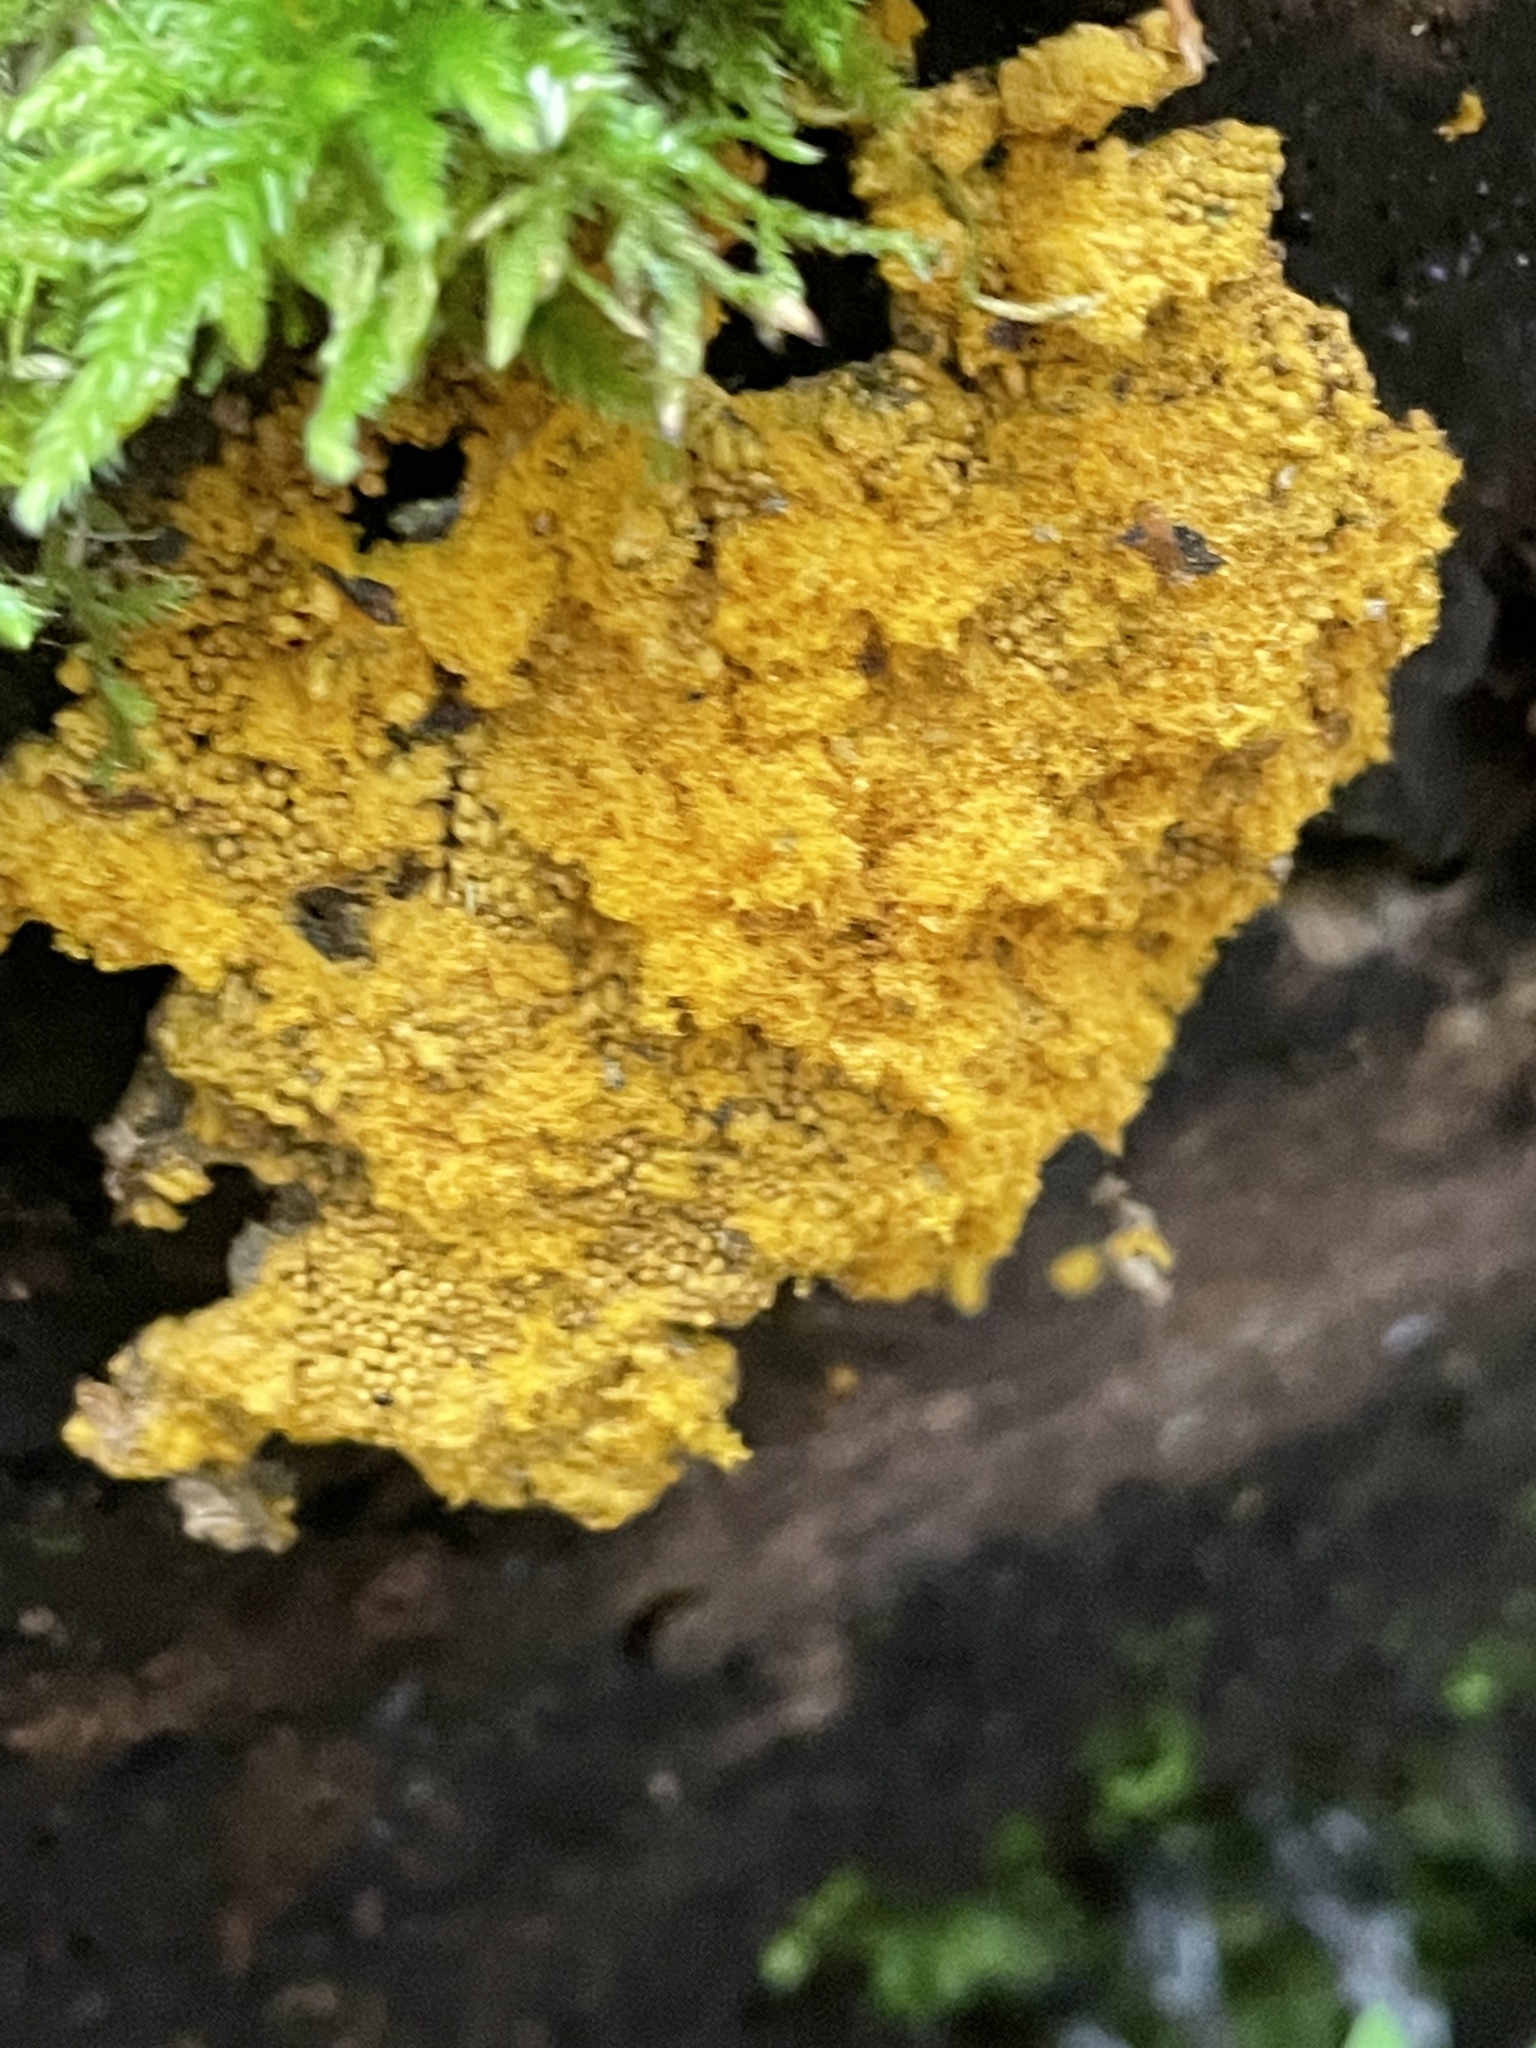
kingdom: Protozoa
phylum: Mycetozoa
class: Myxomycetes
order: Physarales
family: Physaraceae
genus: Fuligo
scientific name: Fuligo septica
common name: Dog vomit slime mold
